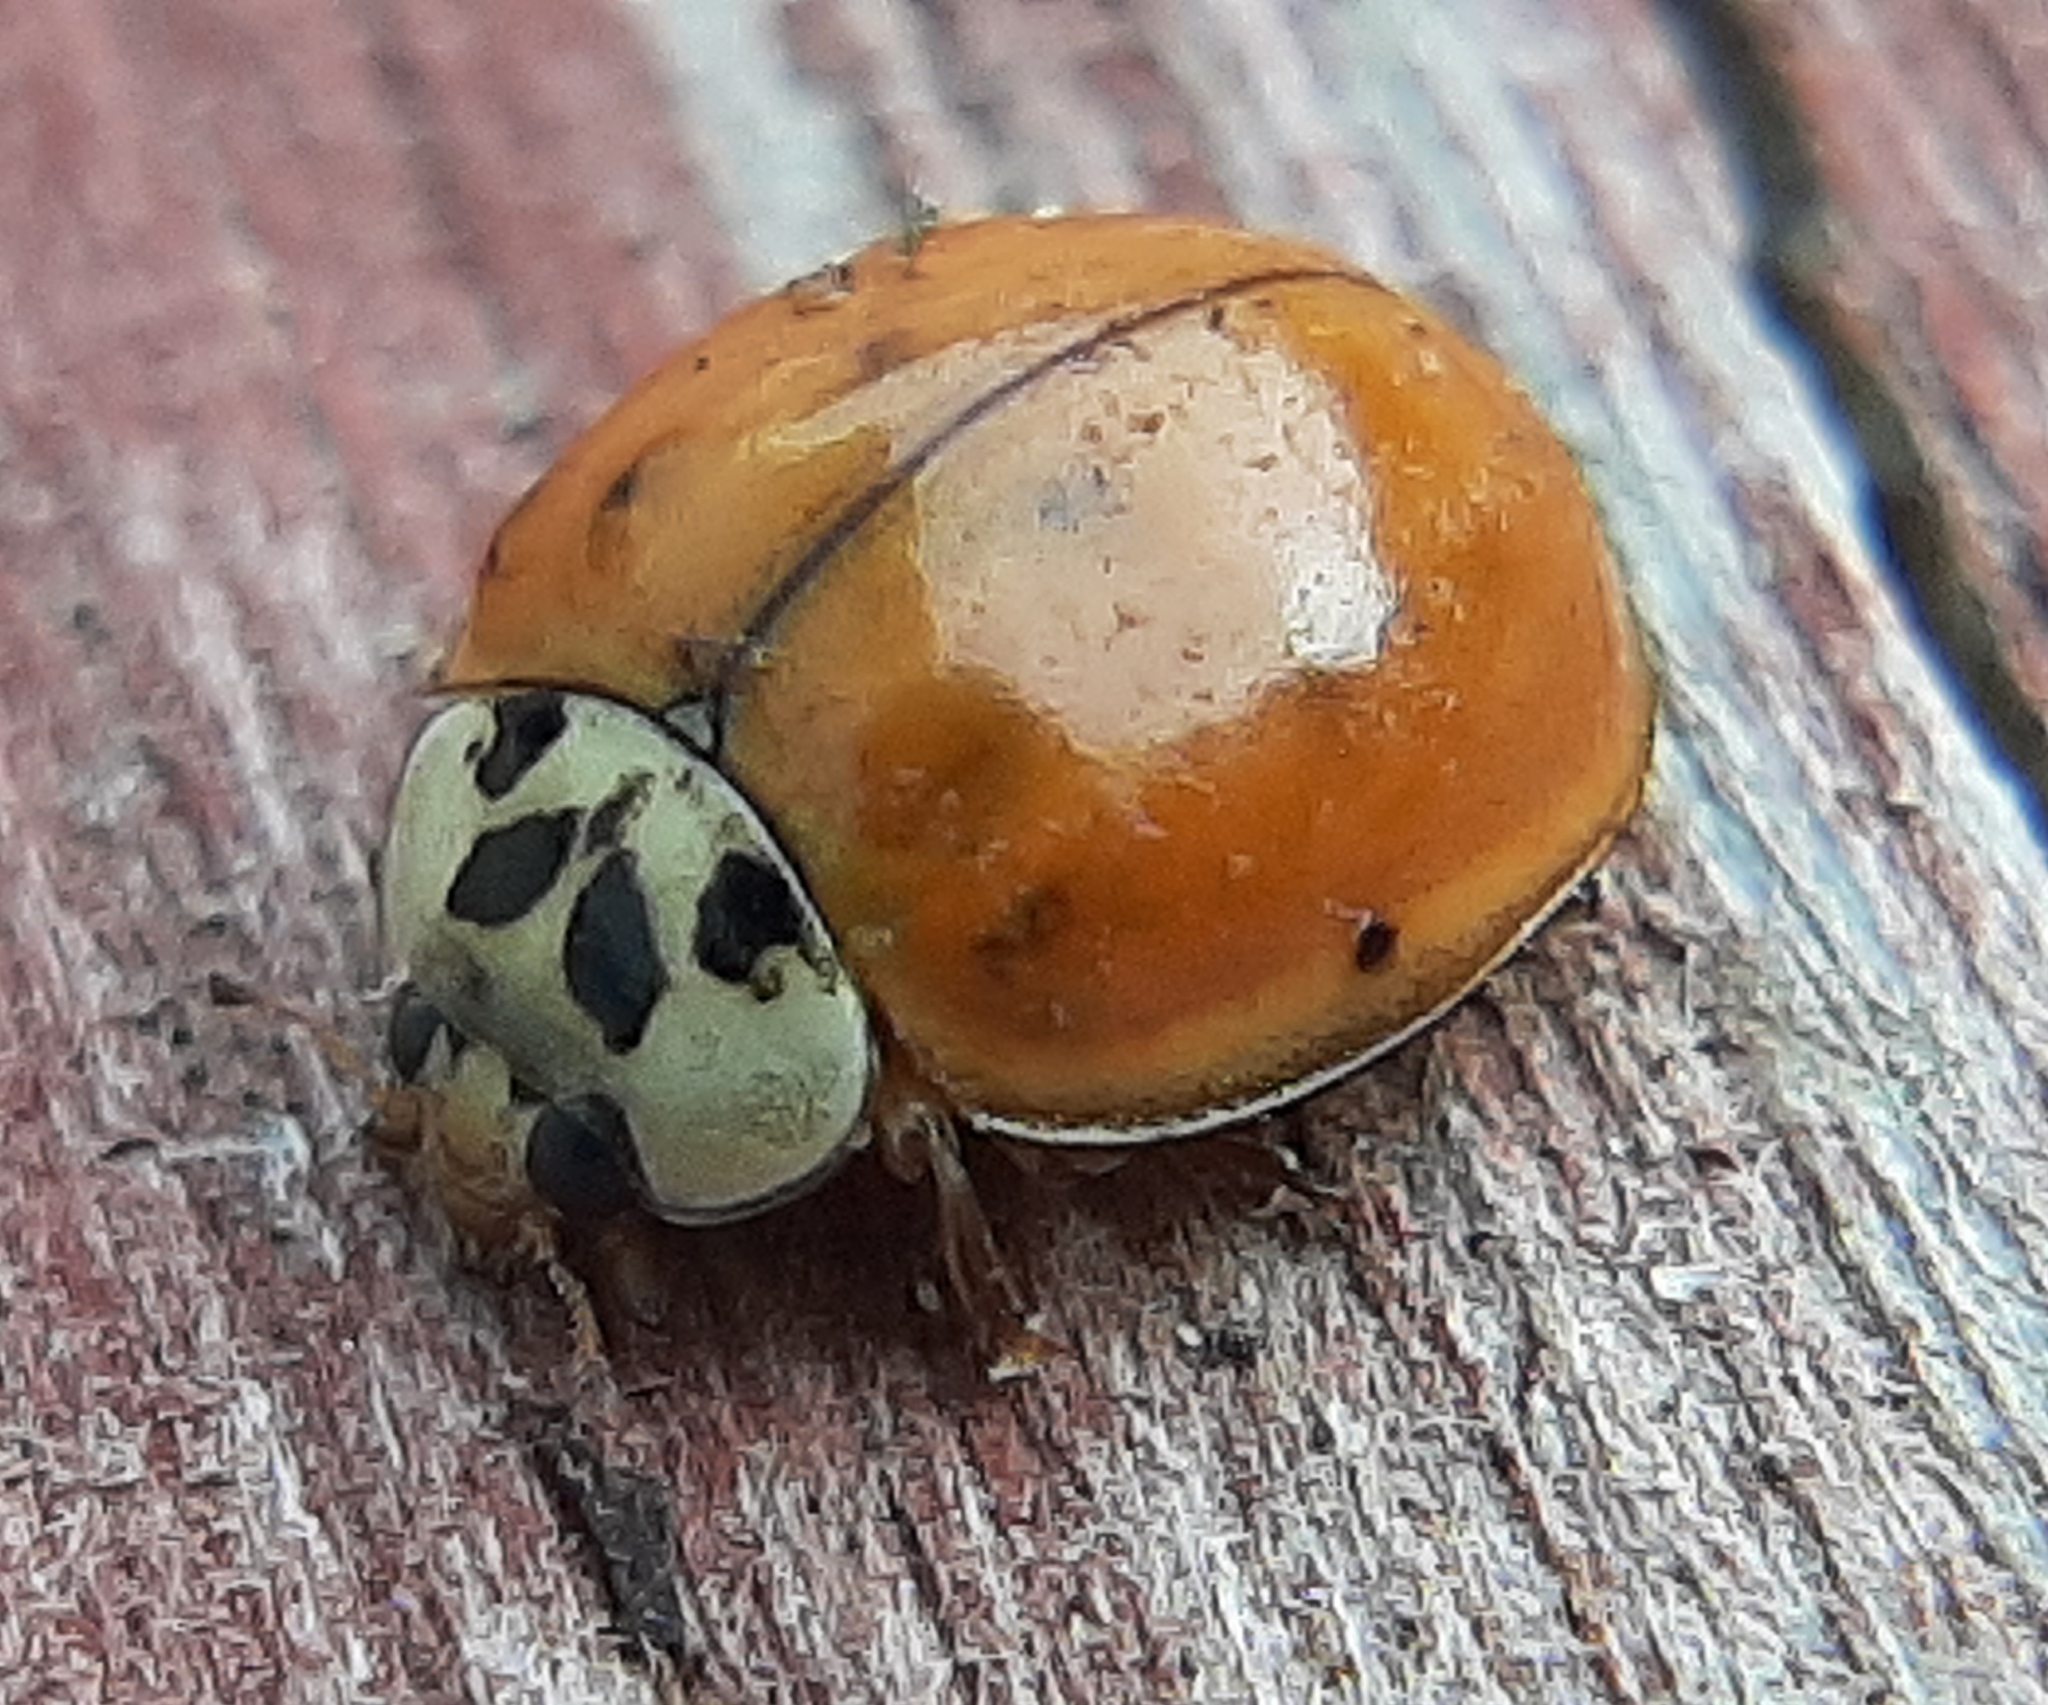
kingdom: Animalia
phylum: Arthropoda
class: Insecta
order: Coleoptera
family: Coccinellidae
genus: Harmonia
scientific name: Harmonia axyridis
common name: Harlequin ladybird
